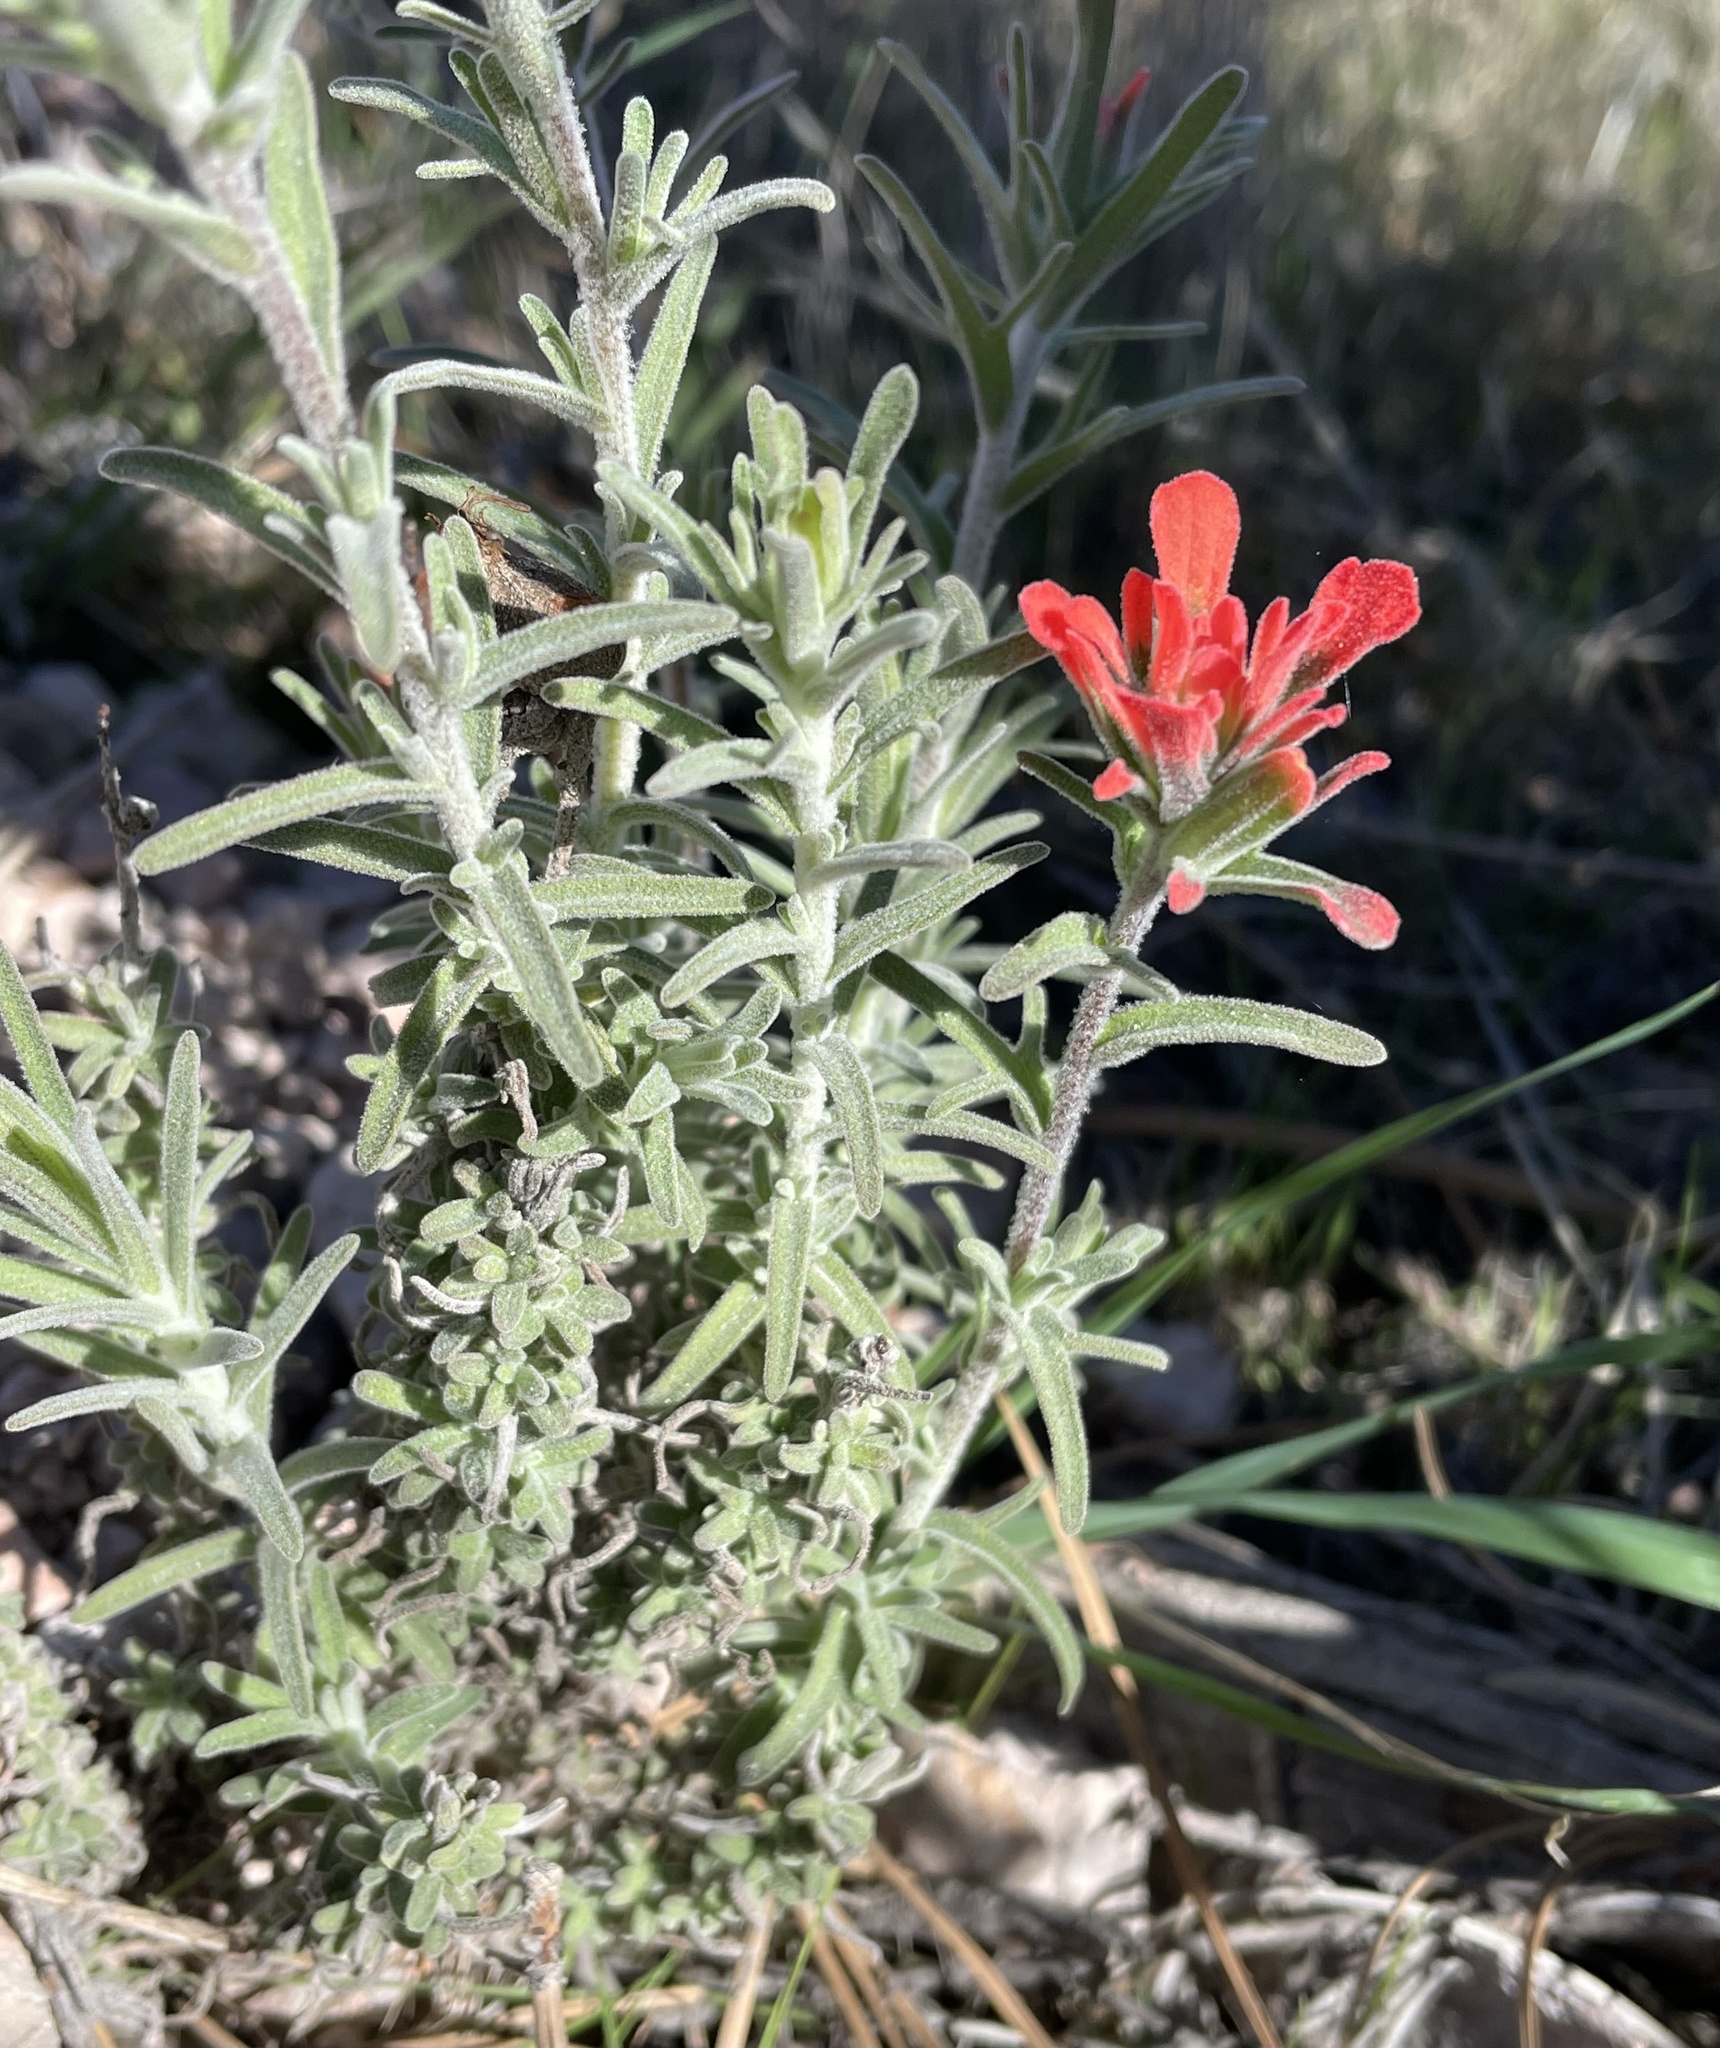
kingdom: Plantae
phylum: Tracheophyta
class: Magnoliopsida
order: Lamiales
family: Orobanchaceae
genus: Castilleja
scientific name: Castilleja foliolosa
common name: Woolly indian paintbrush
